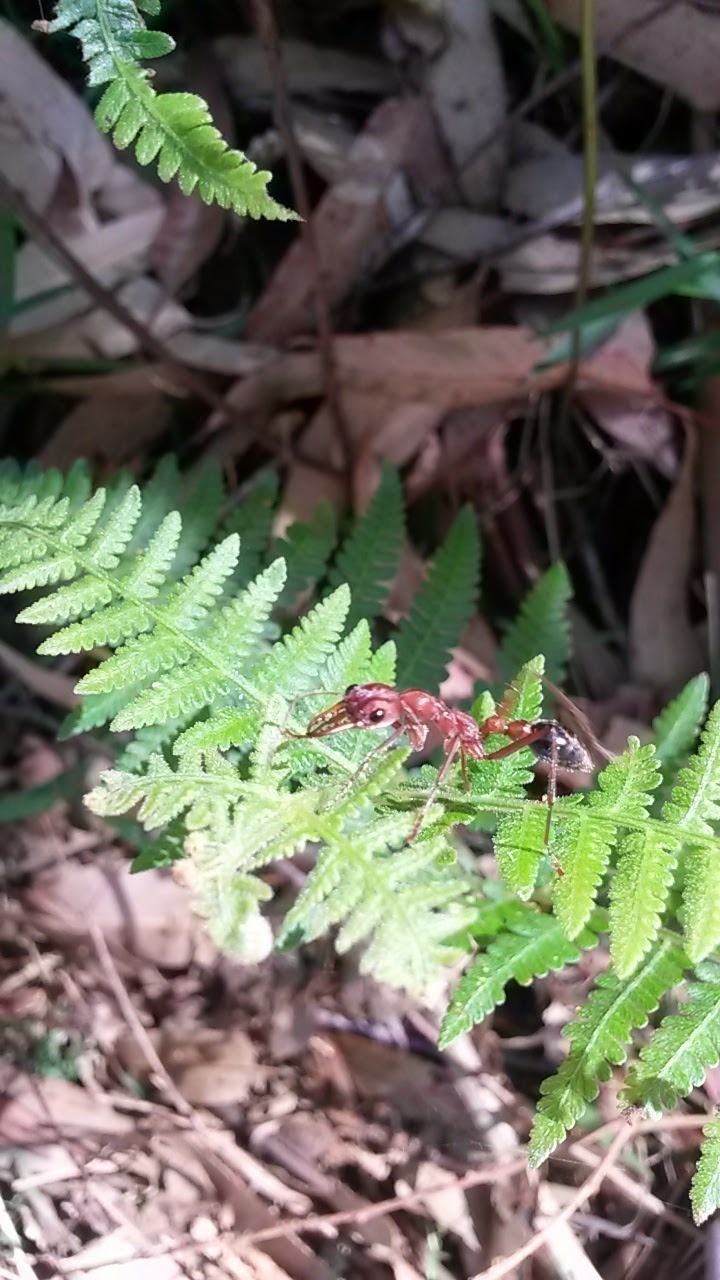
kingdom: Animalia
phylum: Arthropoda
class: Insecta
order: Hymenoptera
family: Formicidae
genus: Myrmecia
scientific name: Myrmecia comata
